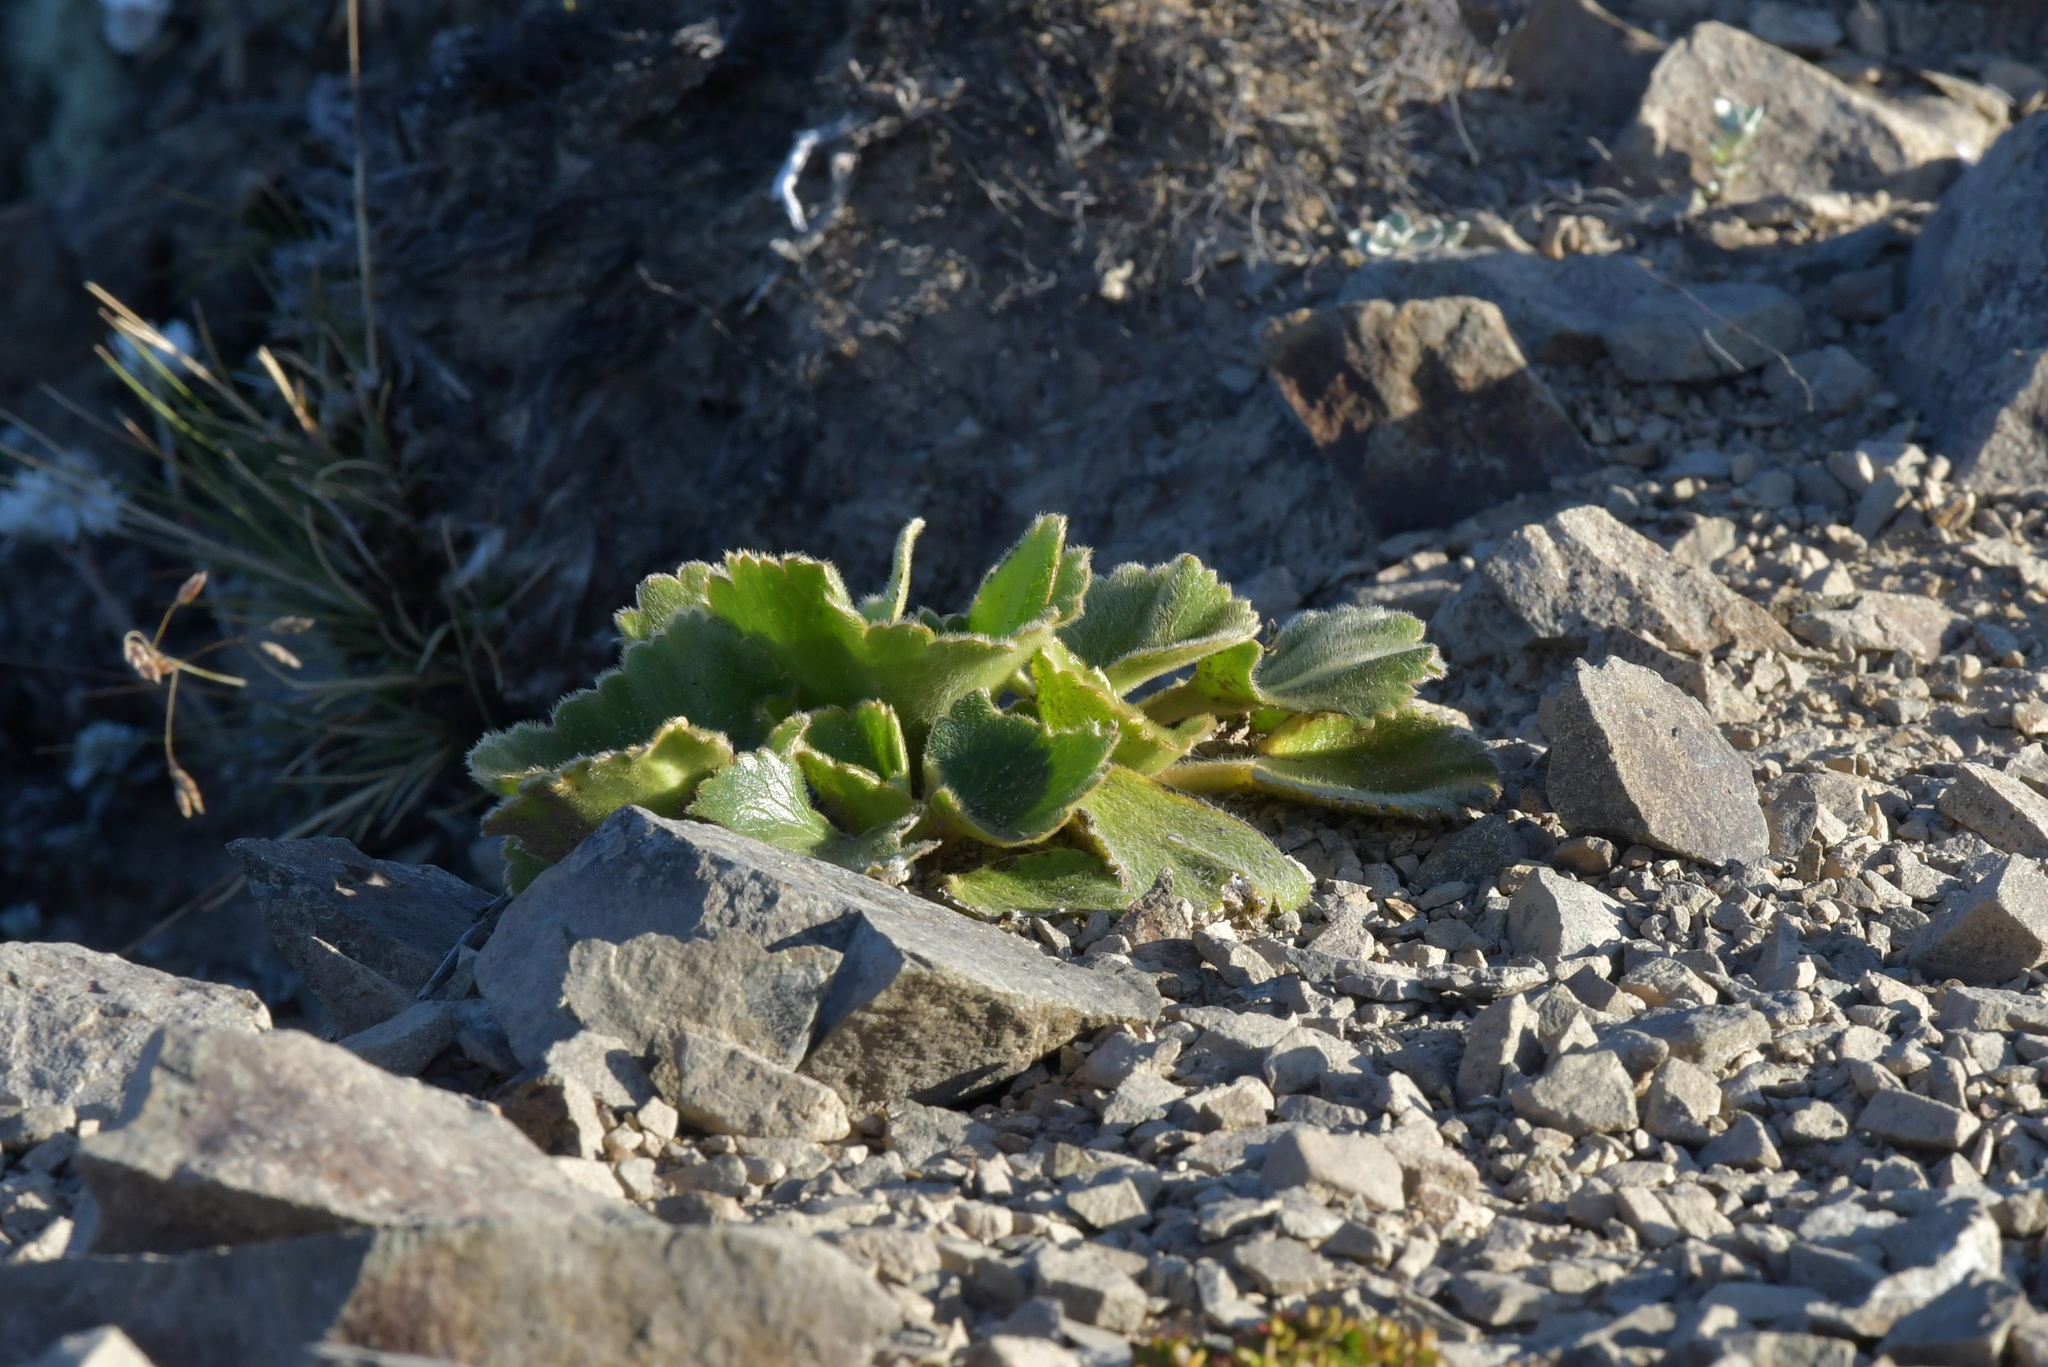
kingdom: Plantae
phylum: Tracheophyta
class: Magnoliopsida
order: Ranunculales
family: Ranunculaceae
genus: Ranunculus
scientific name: Ranunculus insignis
